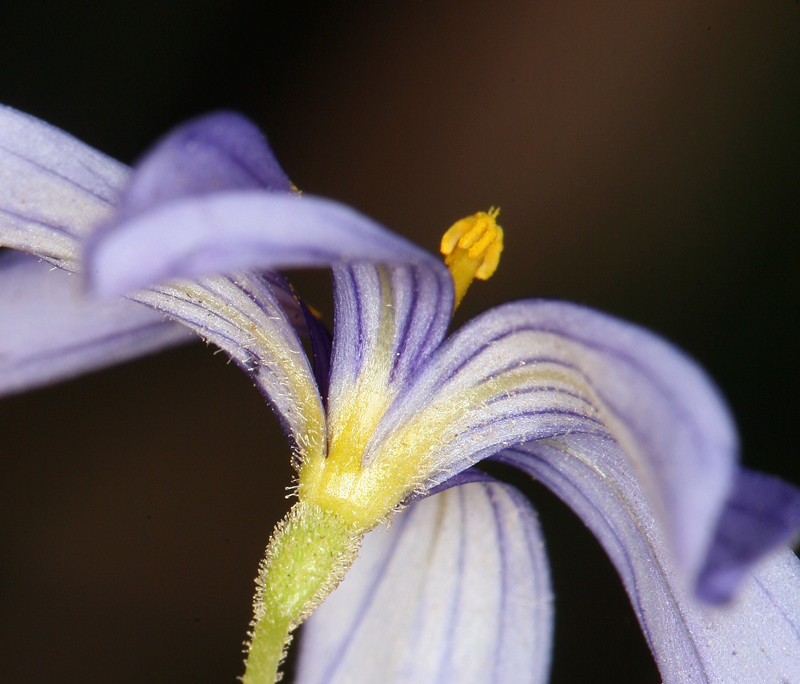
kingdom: Plantae
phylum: Tracheophyta
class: Liliopsida
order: Asparagales
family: Iridaceae
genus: Sisyrinchium
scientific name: Sisyrinchium funereum
